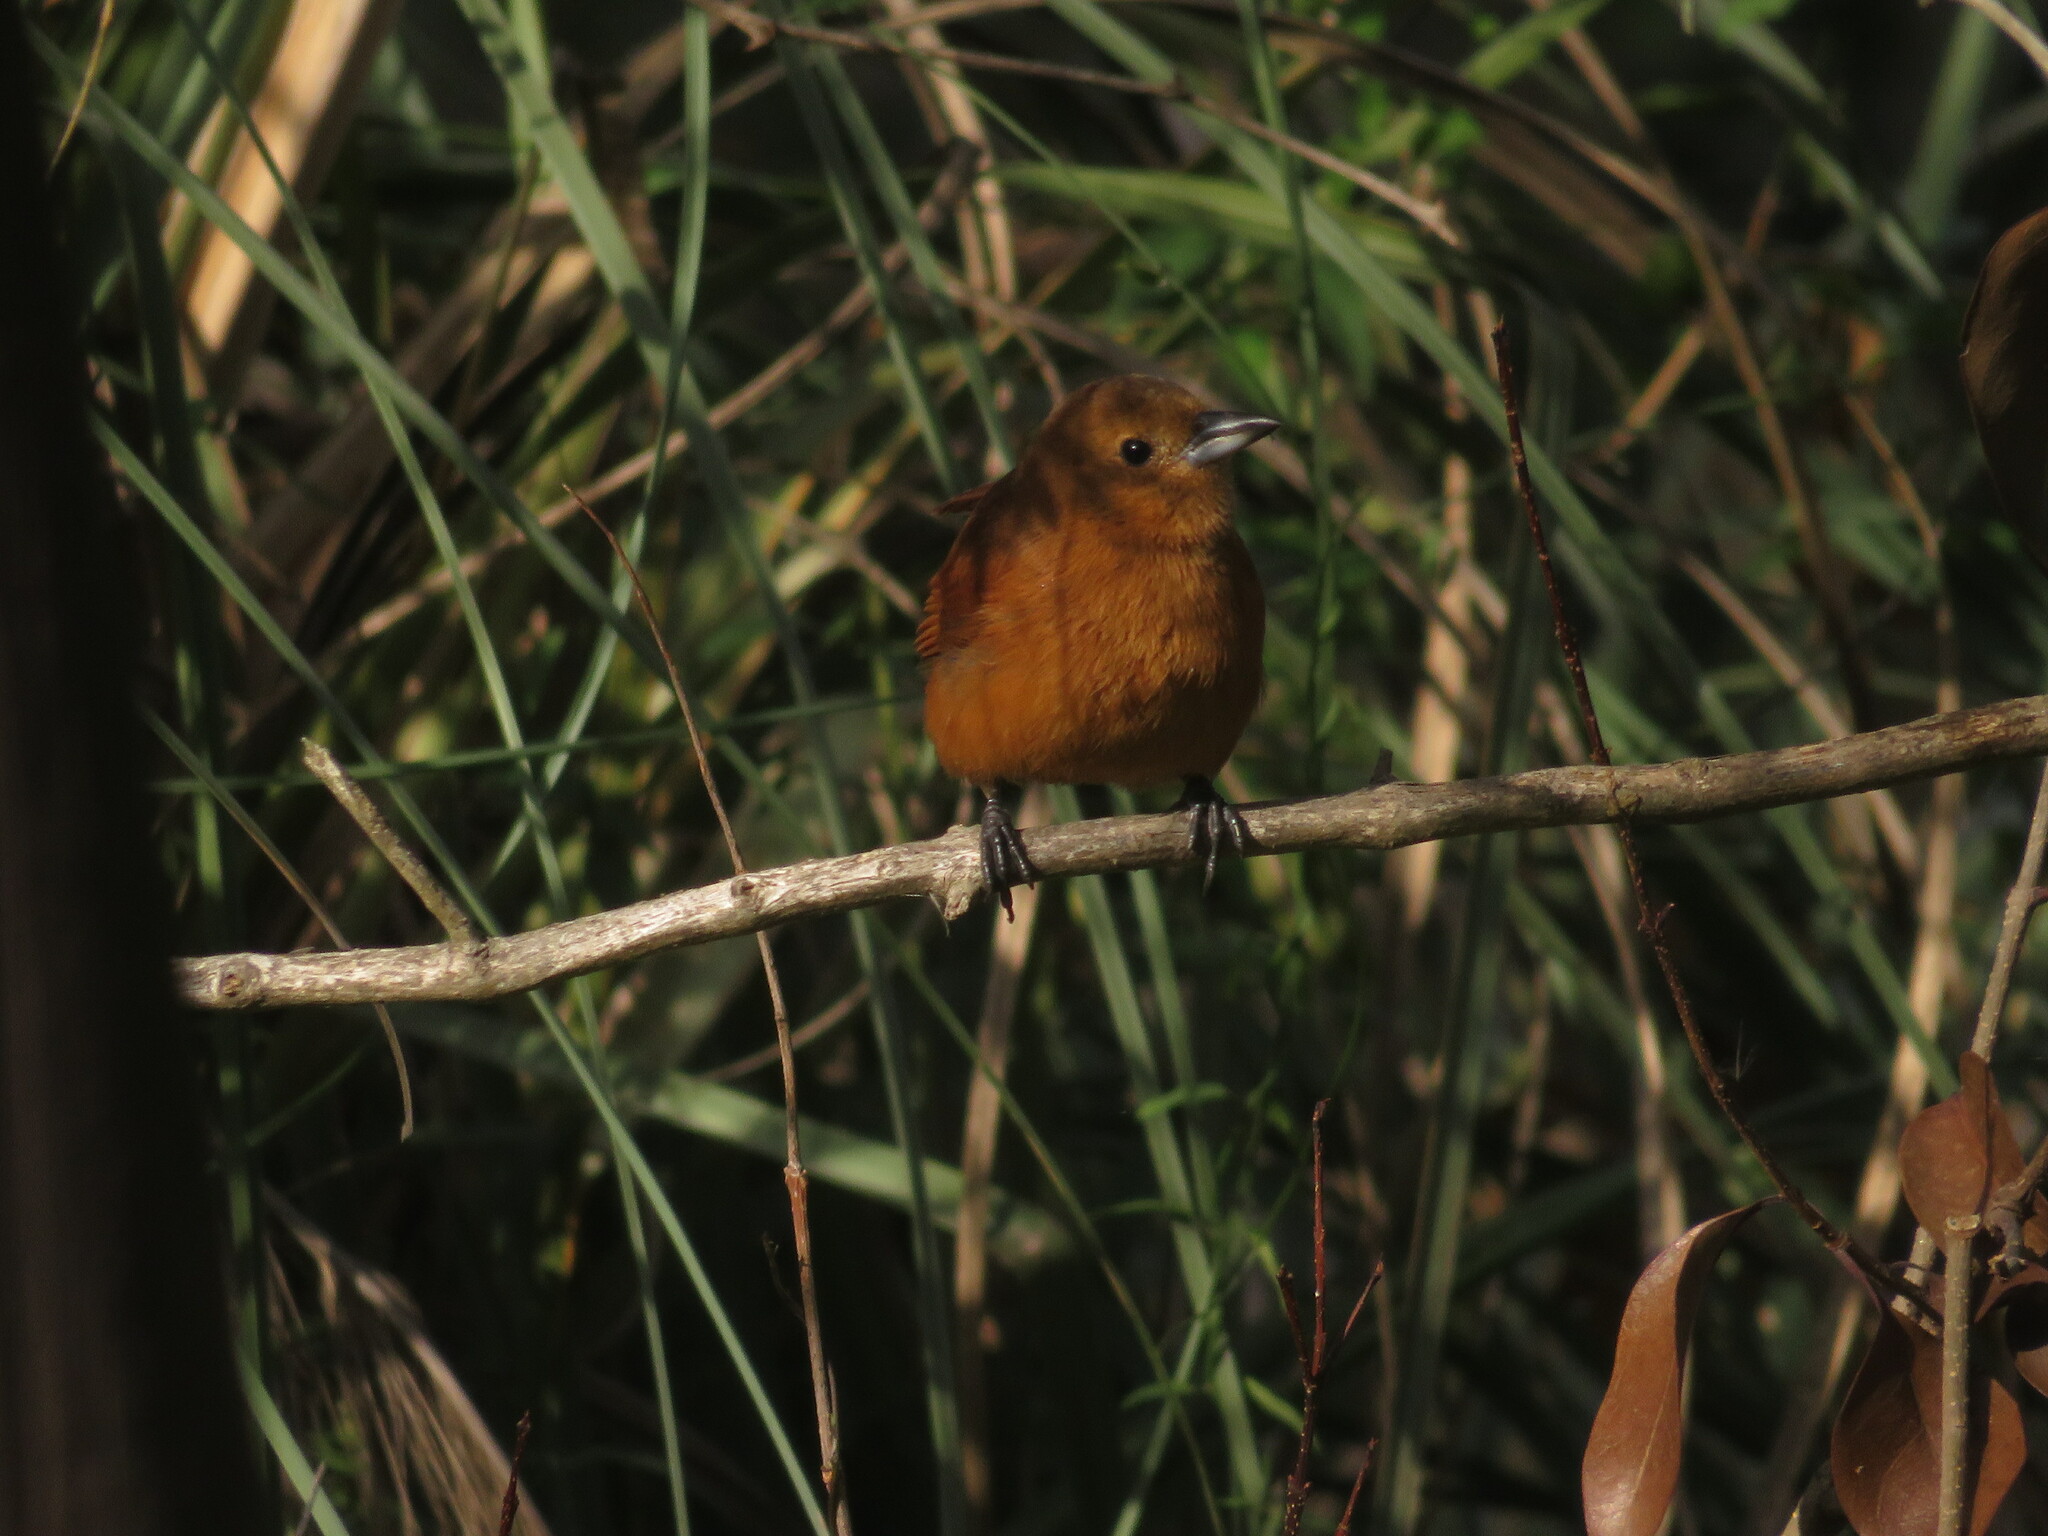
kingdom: Animalia
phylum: Chordata
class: Aves
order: Passeriformes
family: Thraupidae
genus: Tachyphonus
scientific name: Tachyphonus rufus
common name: White-lined tanager
